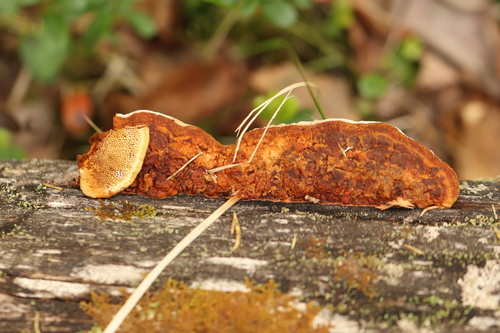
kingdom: Fungi
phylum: Basidiomycota
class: Agaricomycetes
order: Gloeophyllales
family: Gloeophyllaceae
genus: Gloeophyllum
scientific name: Gloeophyllum protractum
